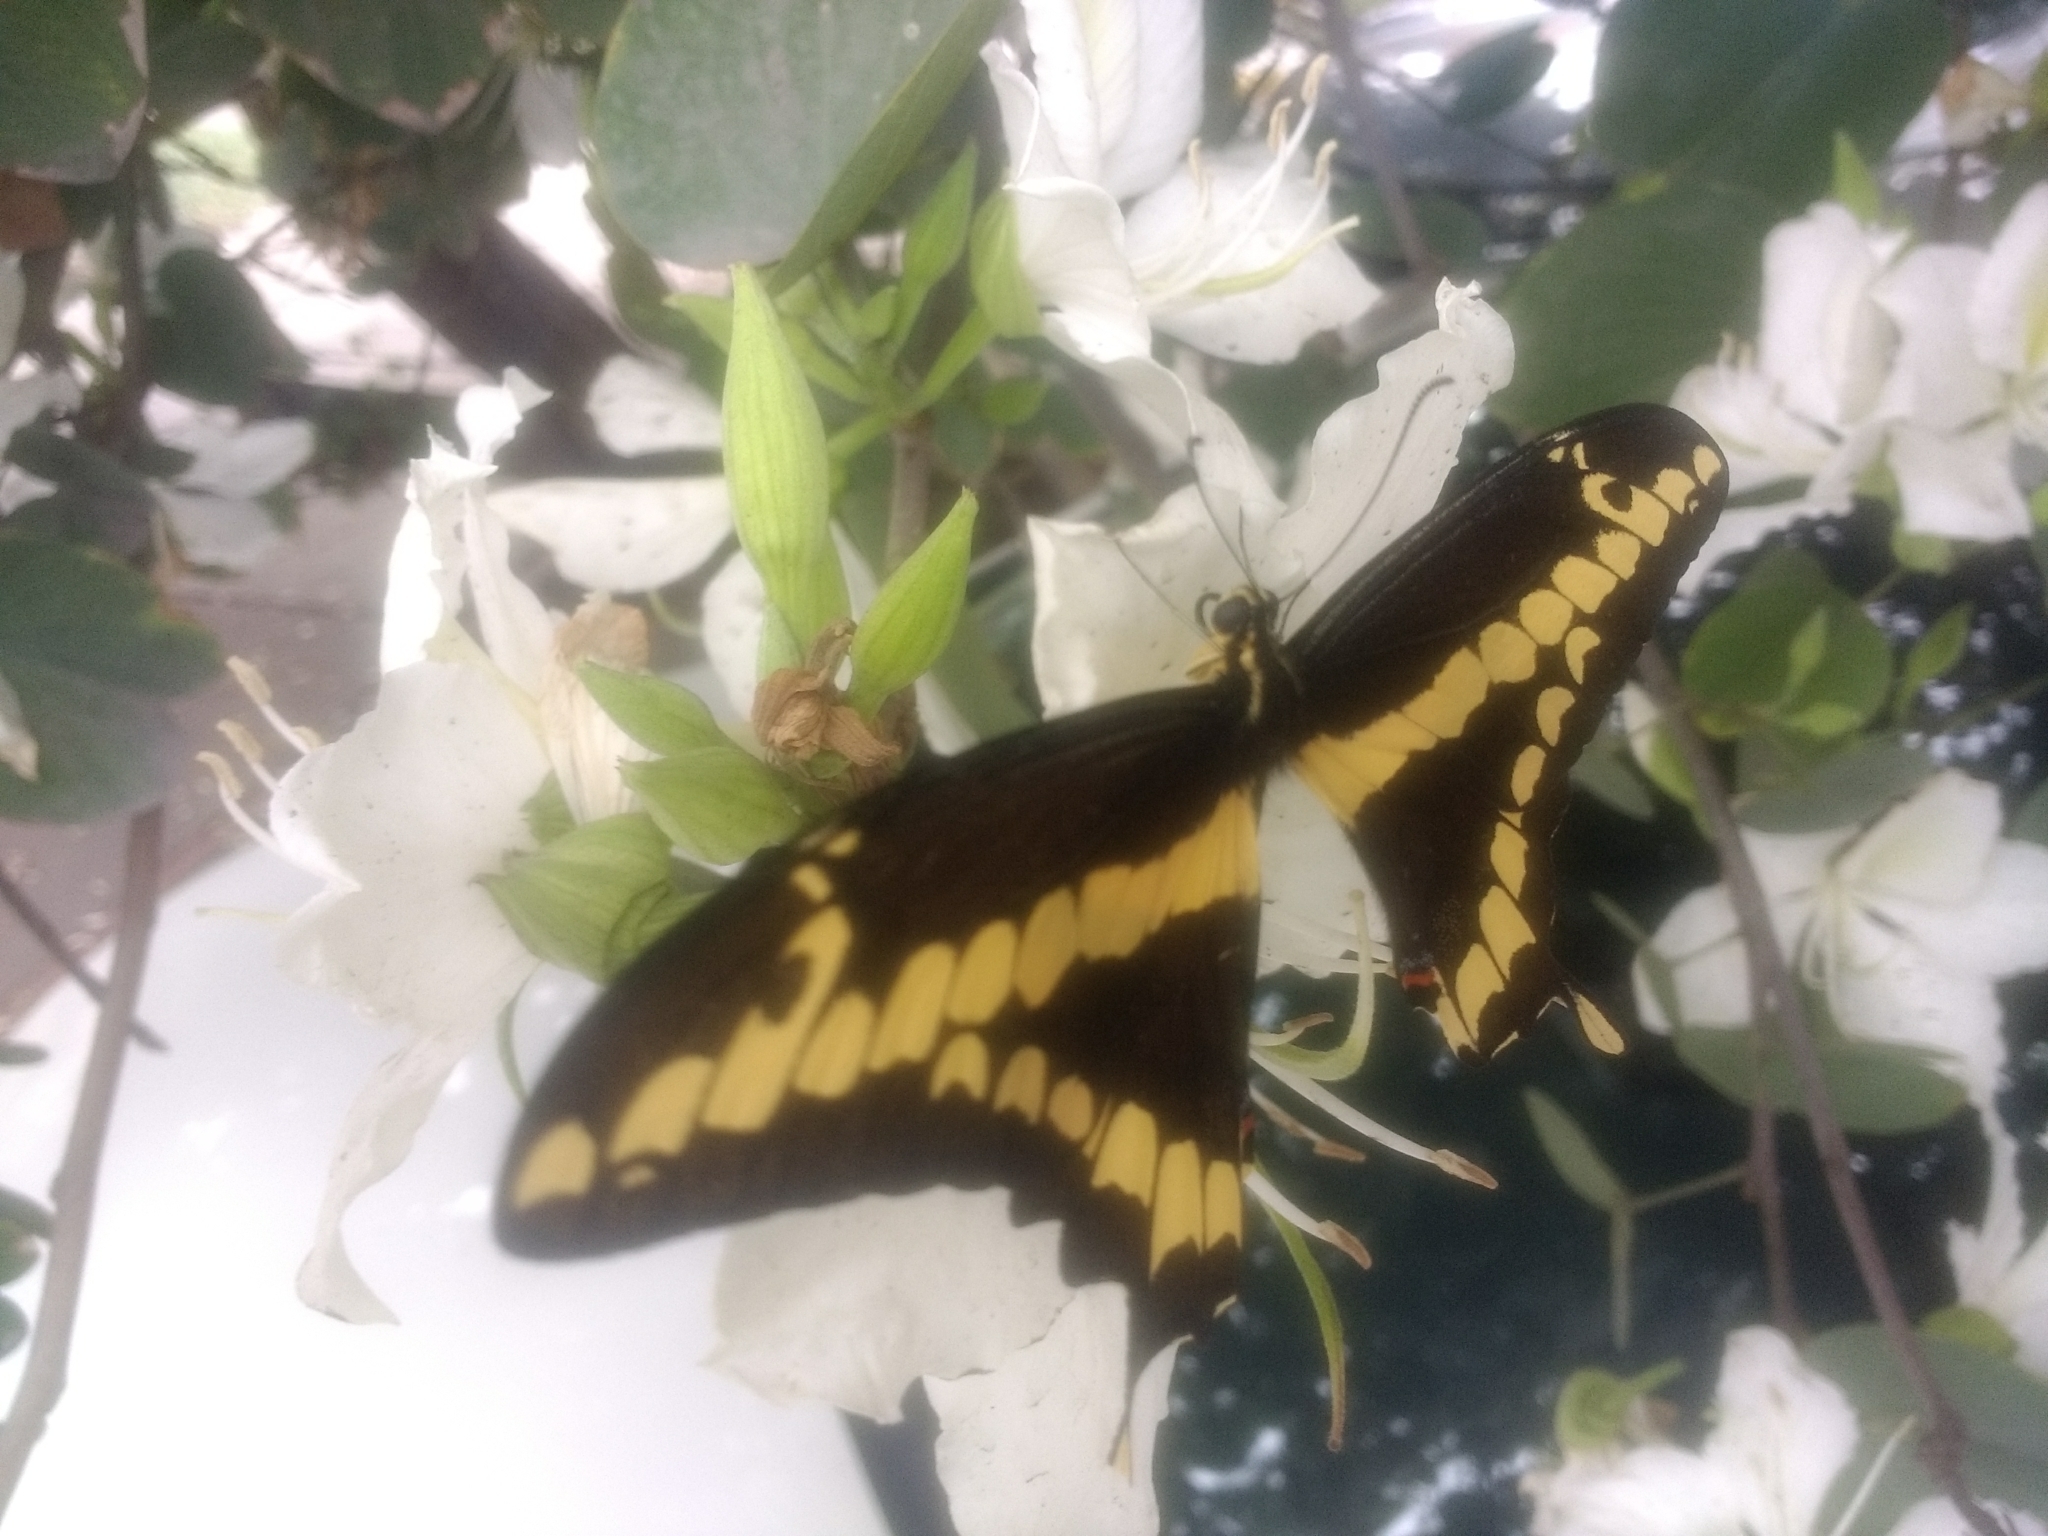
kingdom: Animalia
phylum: Arthropoda
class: Insecta
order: Lepidoptera
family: Papilionidae
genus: Papilio
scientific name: Papilio rumiko
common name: Western giant swallowtail
